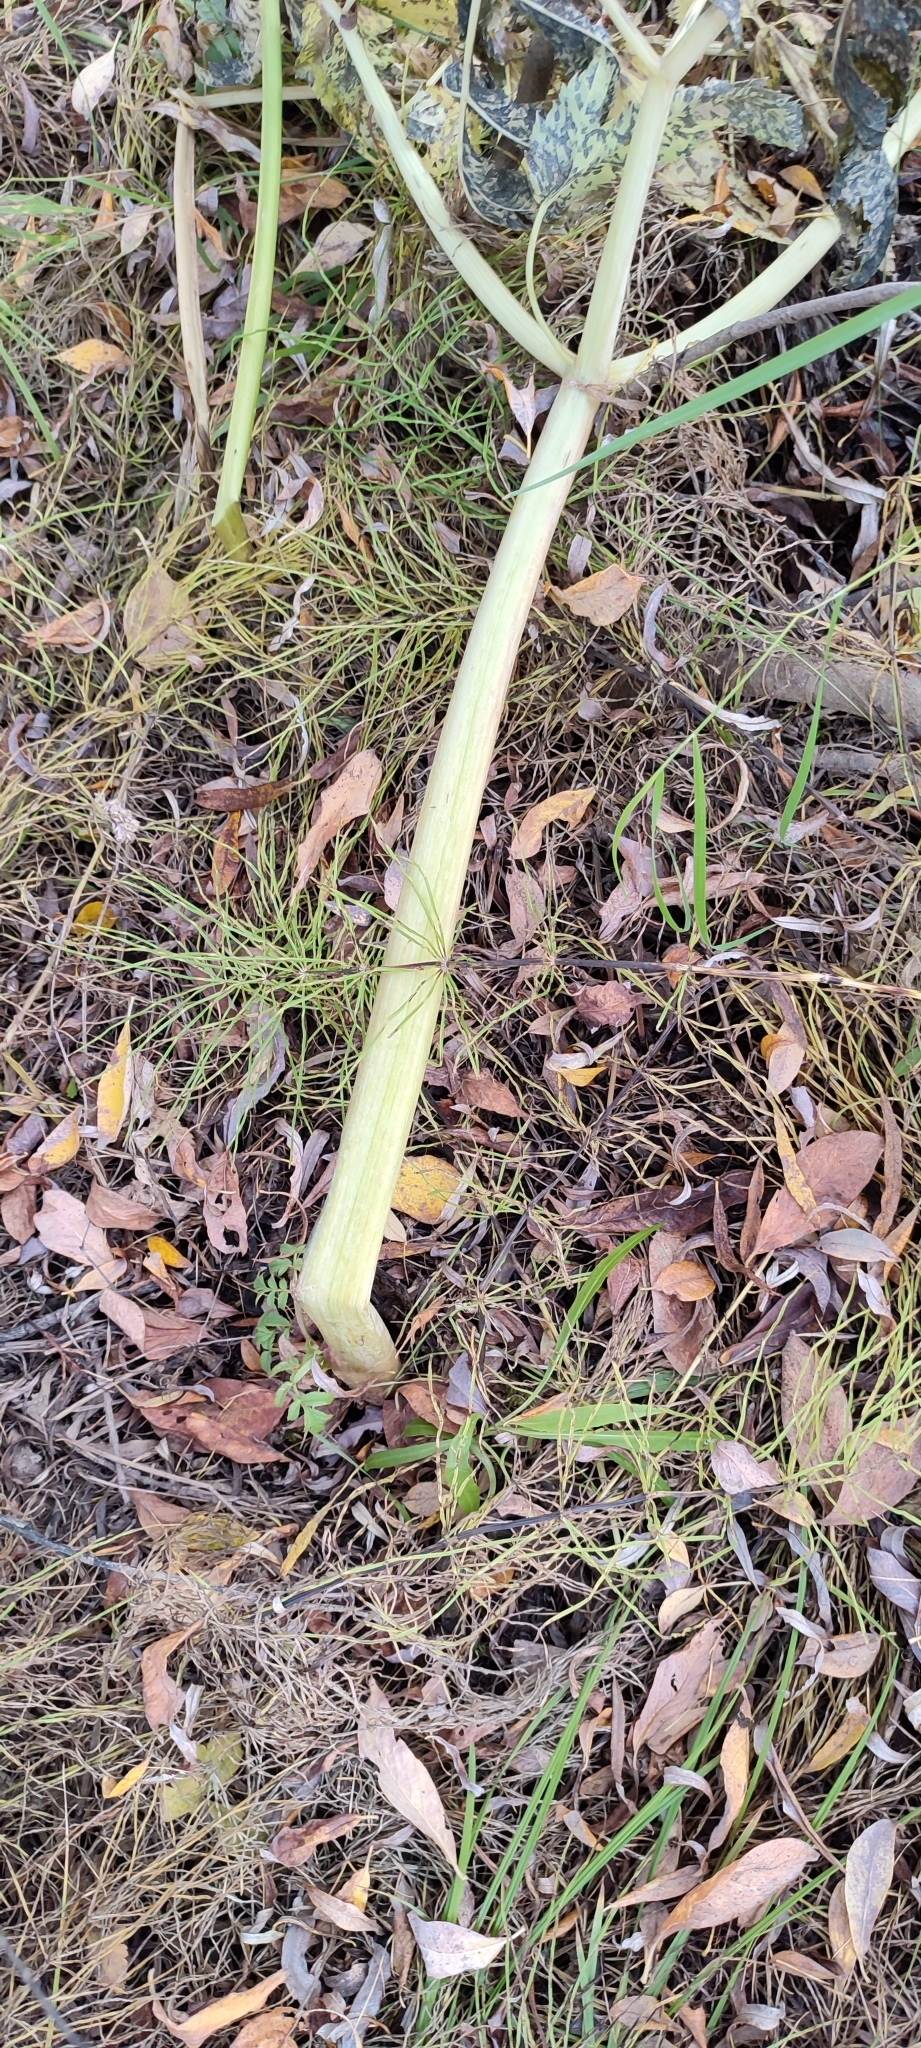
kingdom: Plantae
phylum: Tracheophyta
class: Magnoliopsida
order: Apiales
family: Apiaceae
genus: Angelica
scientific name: Angelica decurrens
